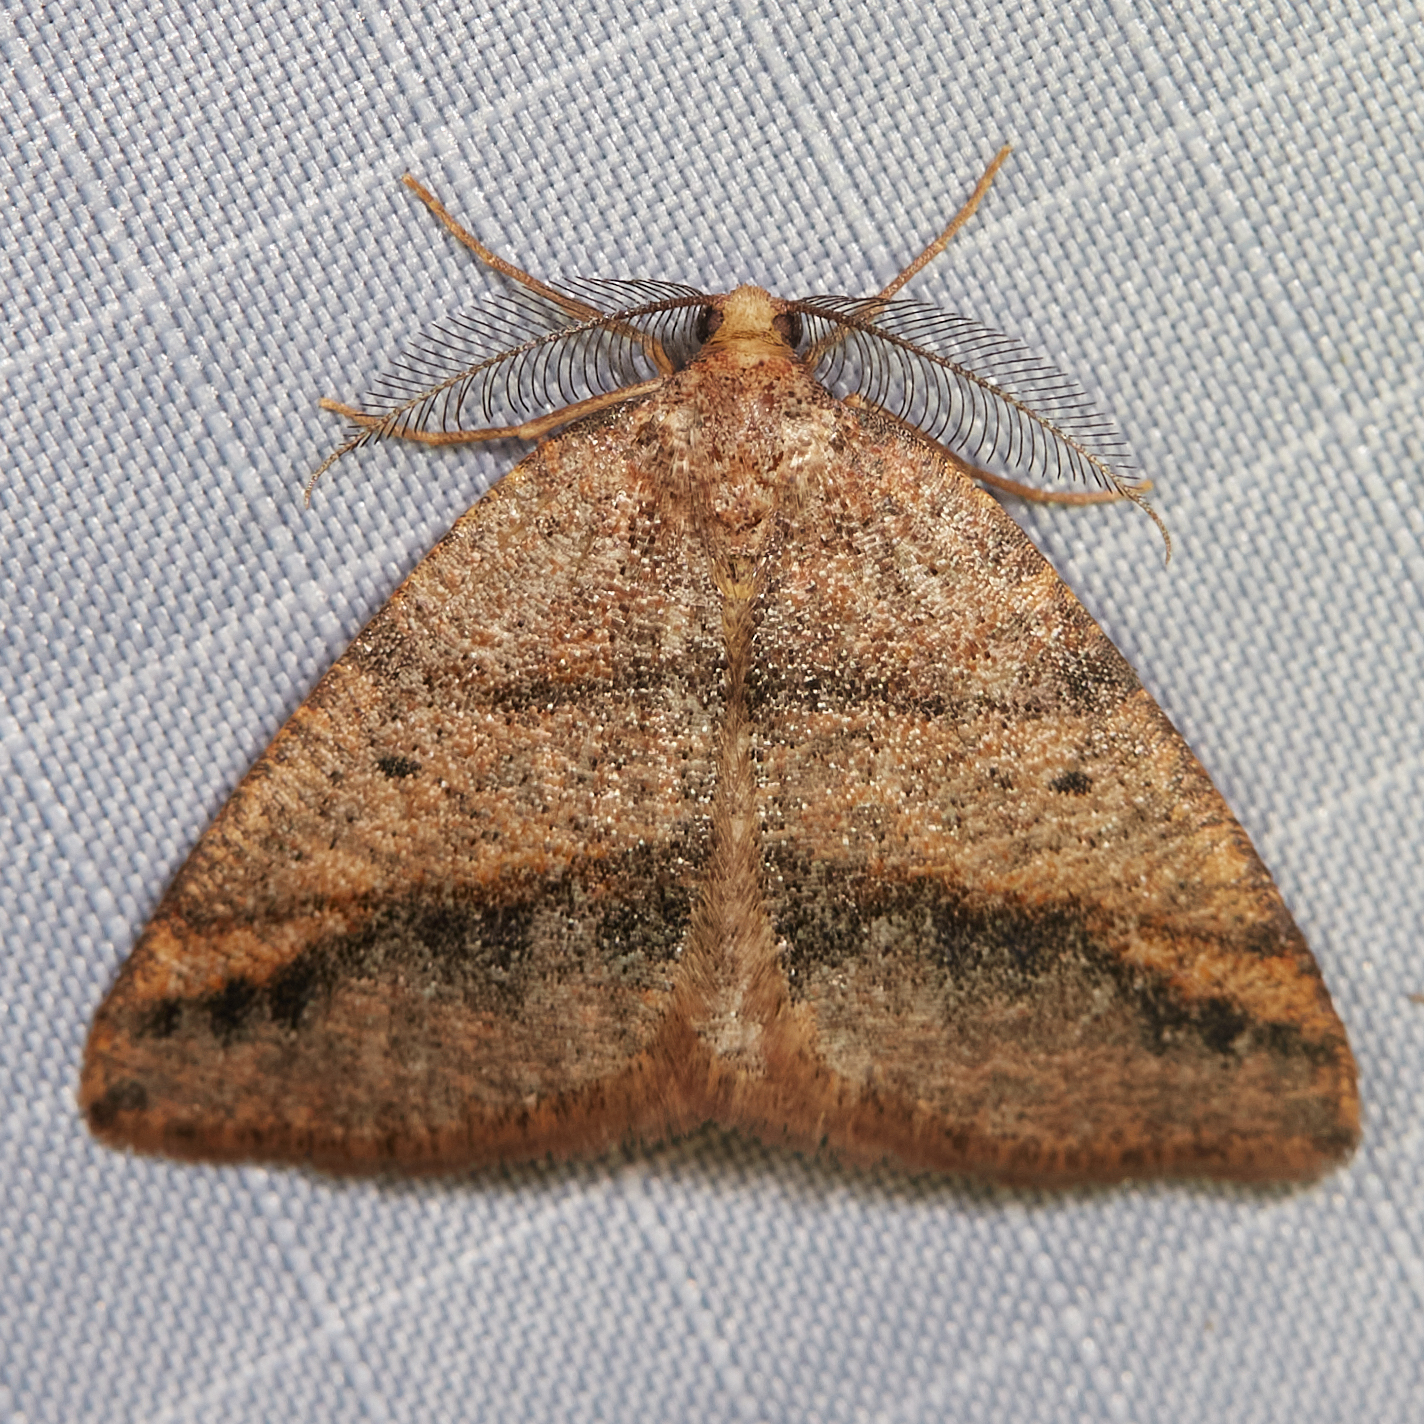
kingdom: Animalia
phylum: Arthropoda
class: Insecta
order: Lepidoptera
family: Geometridae
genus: Drepanulatrix
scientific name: Drepanulatrix bifilata
